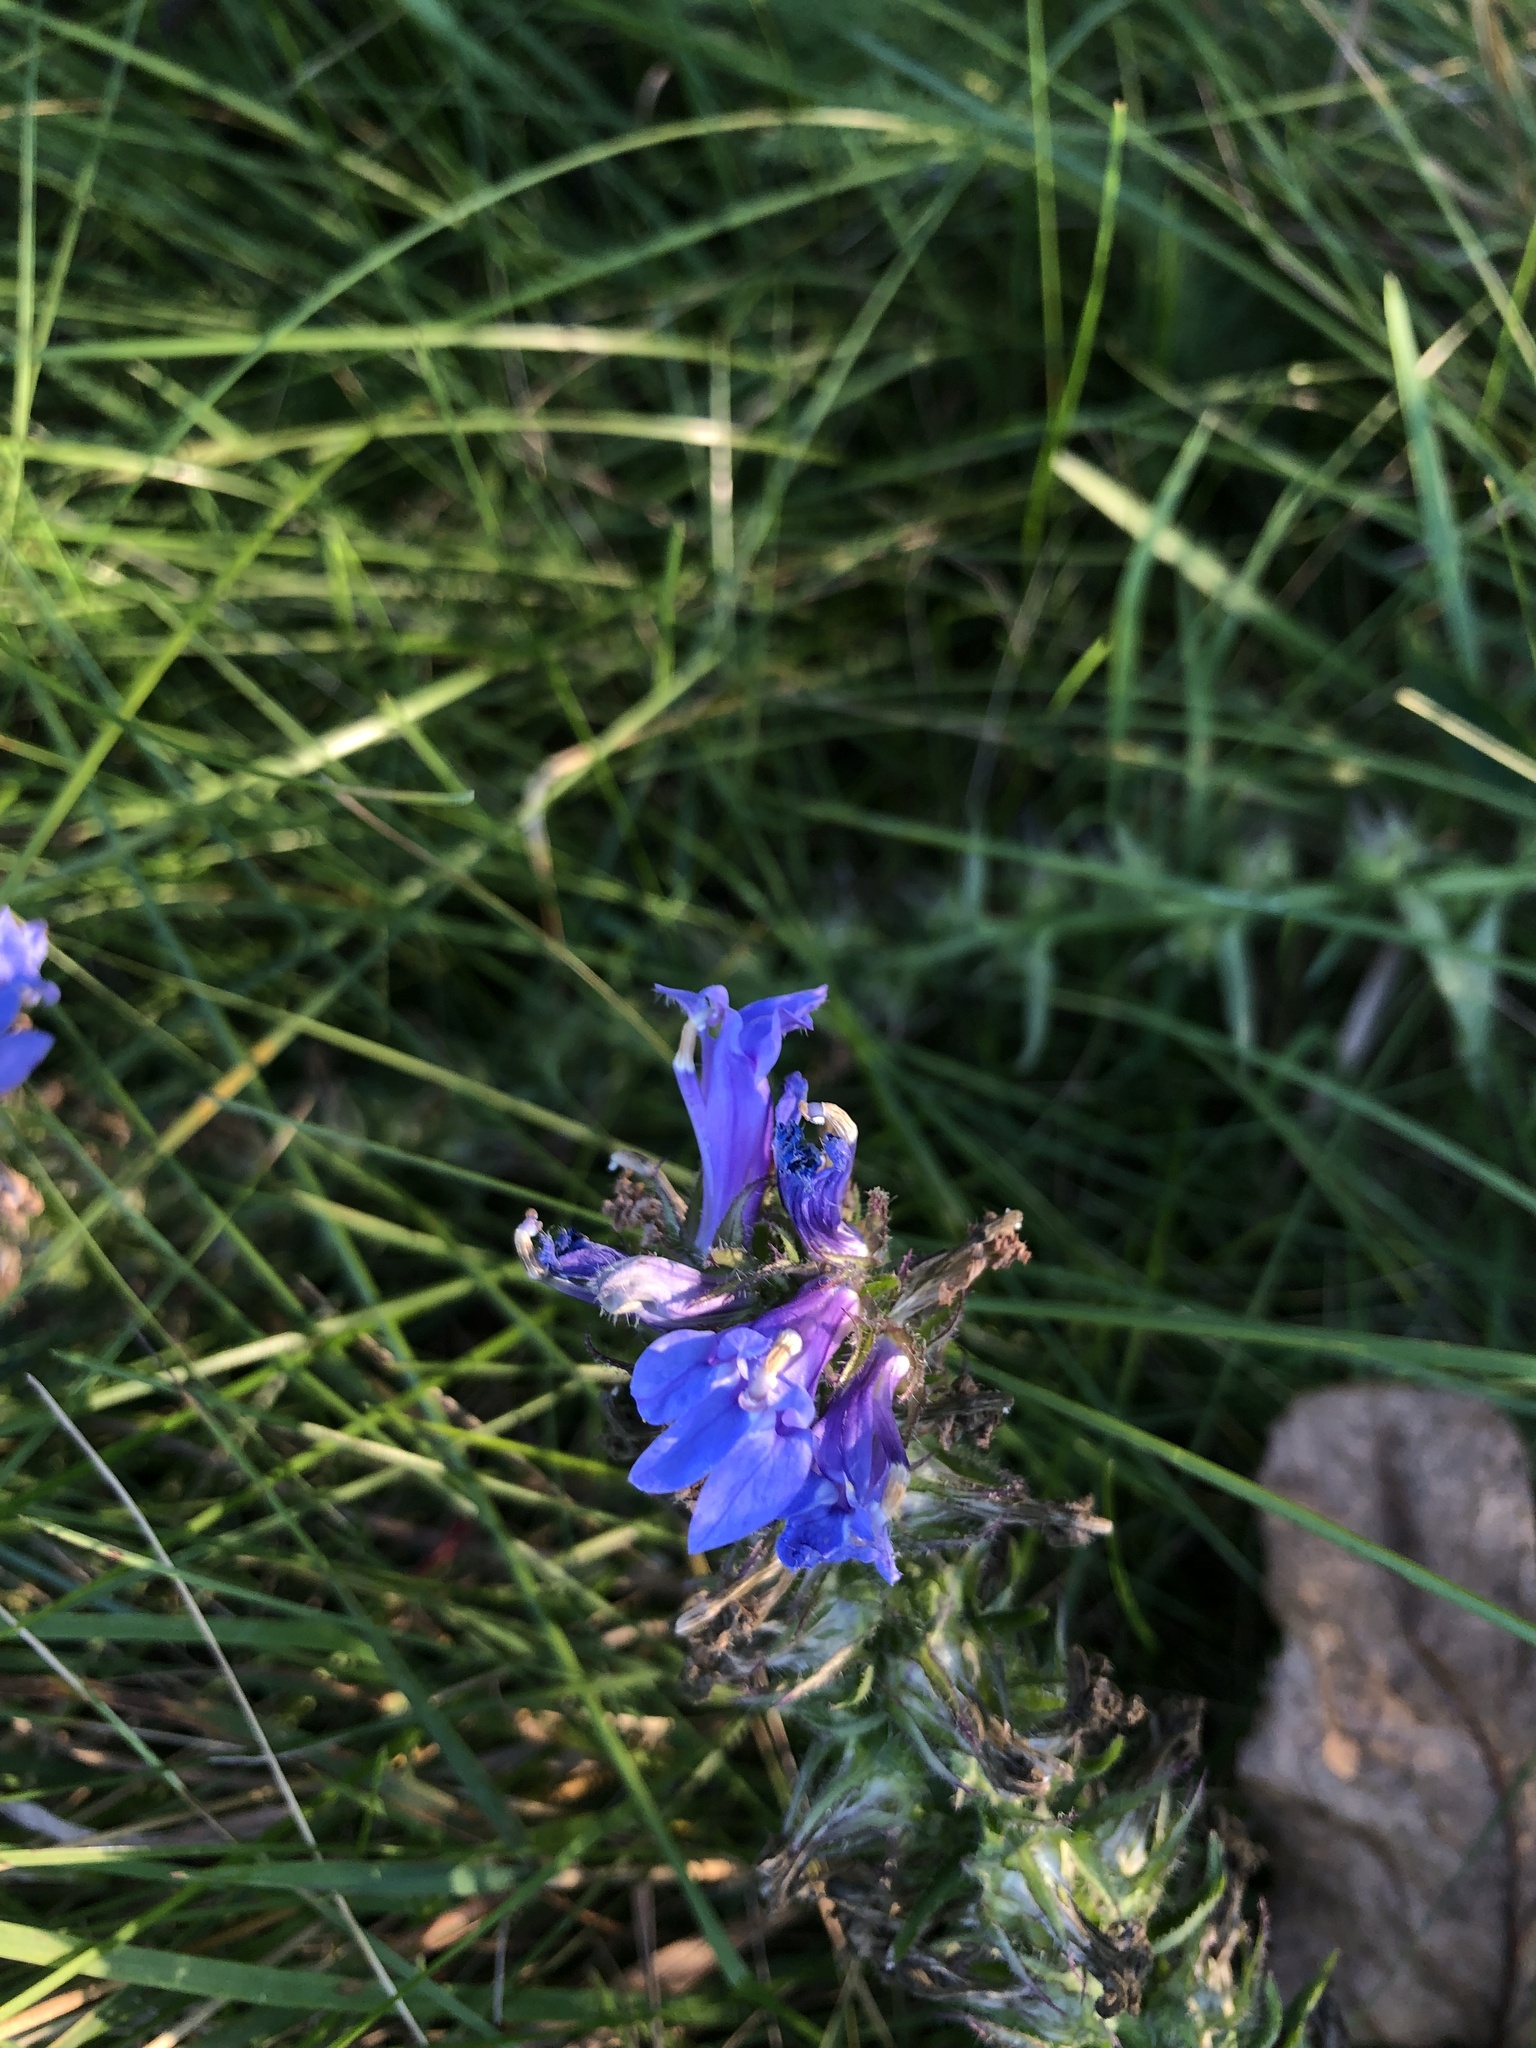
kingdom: Plantae
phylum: Tracheophyta
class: Magnoliopsida
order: Asterales
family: Campanulaceae
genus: Lobelia
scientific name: Lobelia siphilitica
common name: Great lobelia
